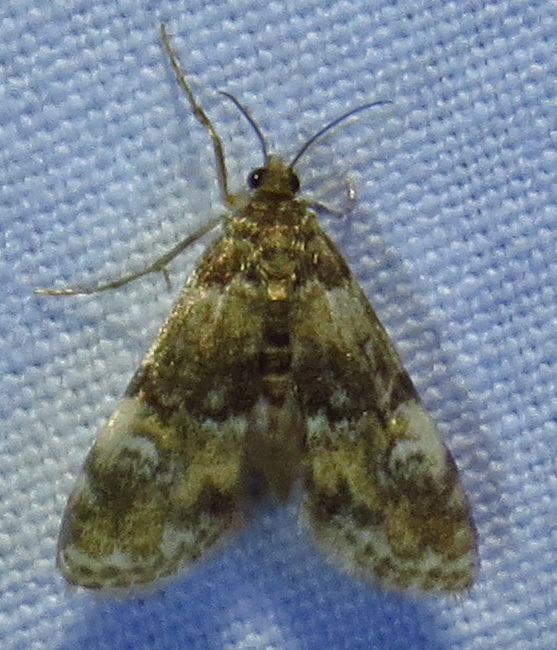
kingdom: Animalia
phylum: Arthropoda
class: Insecta
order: Lepidoptera
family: Crambidae
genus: Elophila
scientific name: Elophila obliteralis
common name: Waterlily leafcutter moth
